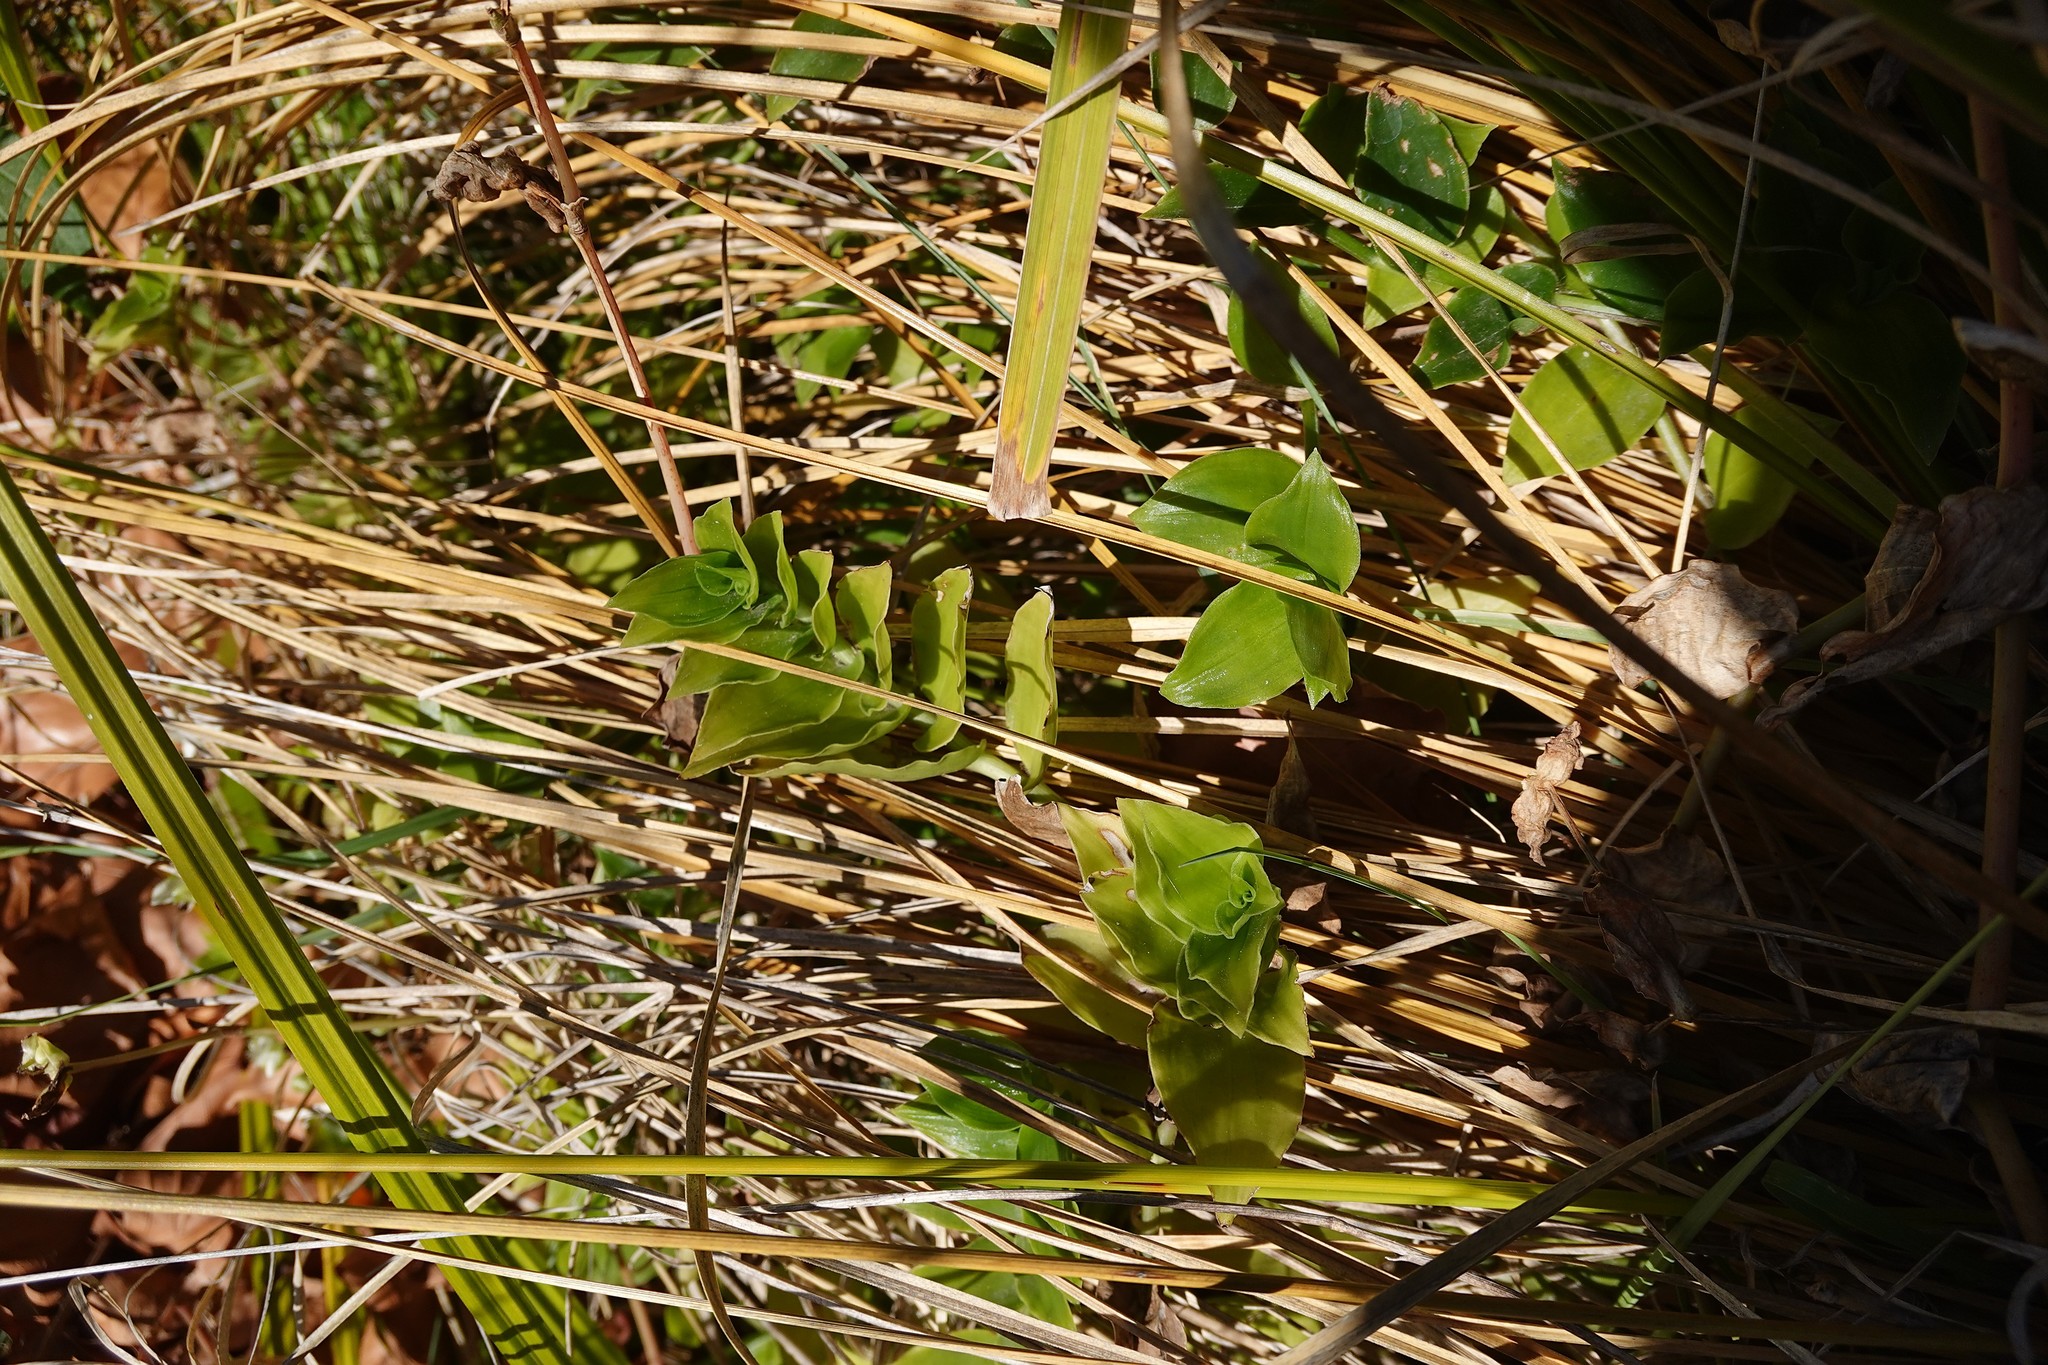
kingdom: Plantae
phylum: Tracheophyta
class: Liliopsida
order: Commelinales
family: Commelinaceae
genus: Tradescantia
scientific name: Tradescantia fluminensis
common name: Wandering-jew
